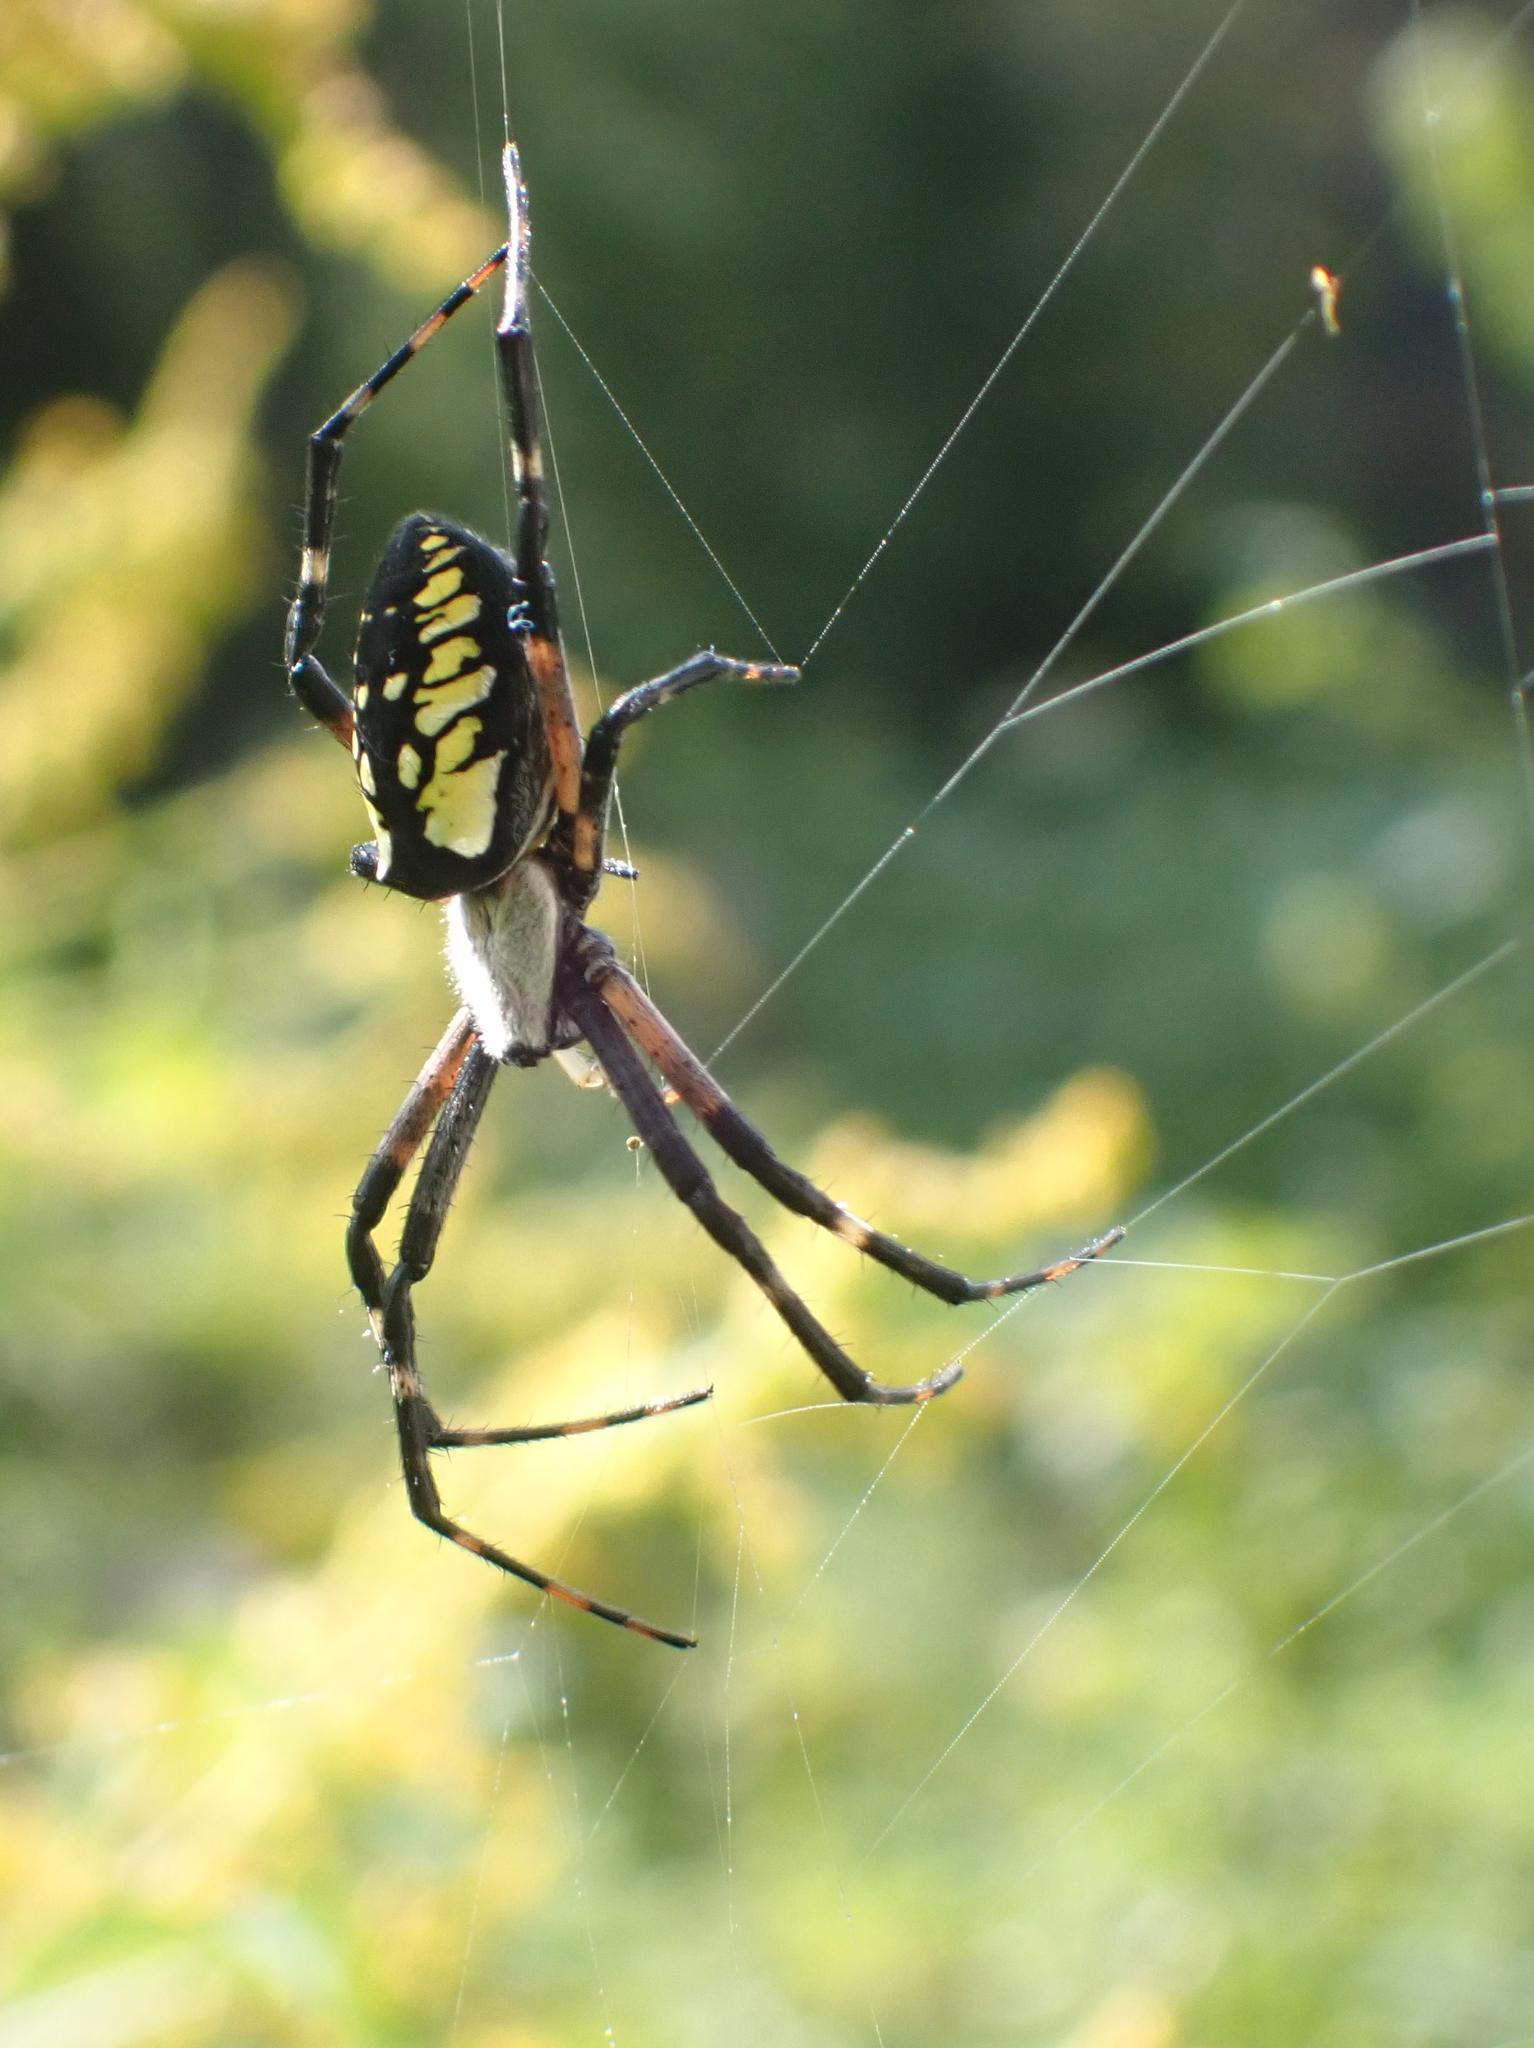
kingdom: Animalia
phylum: Arthropoda
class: Arachnida
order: Araneae
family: Araneidae
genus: Argiope
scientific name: Argiope aurantia
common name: Orb weavers
